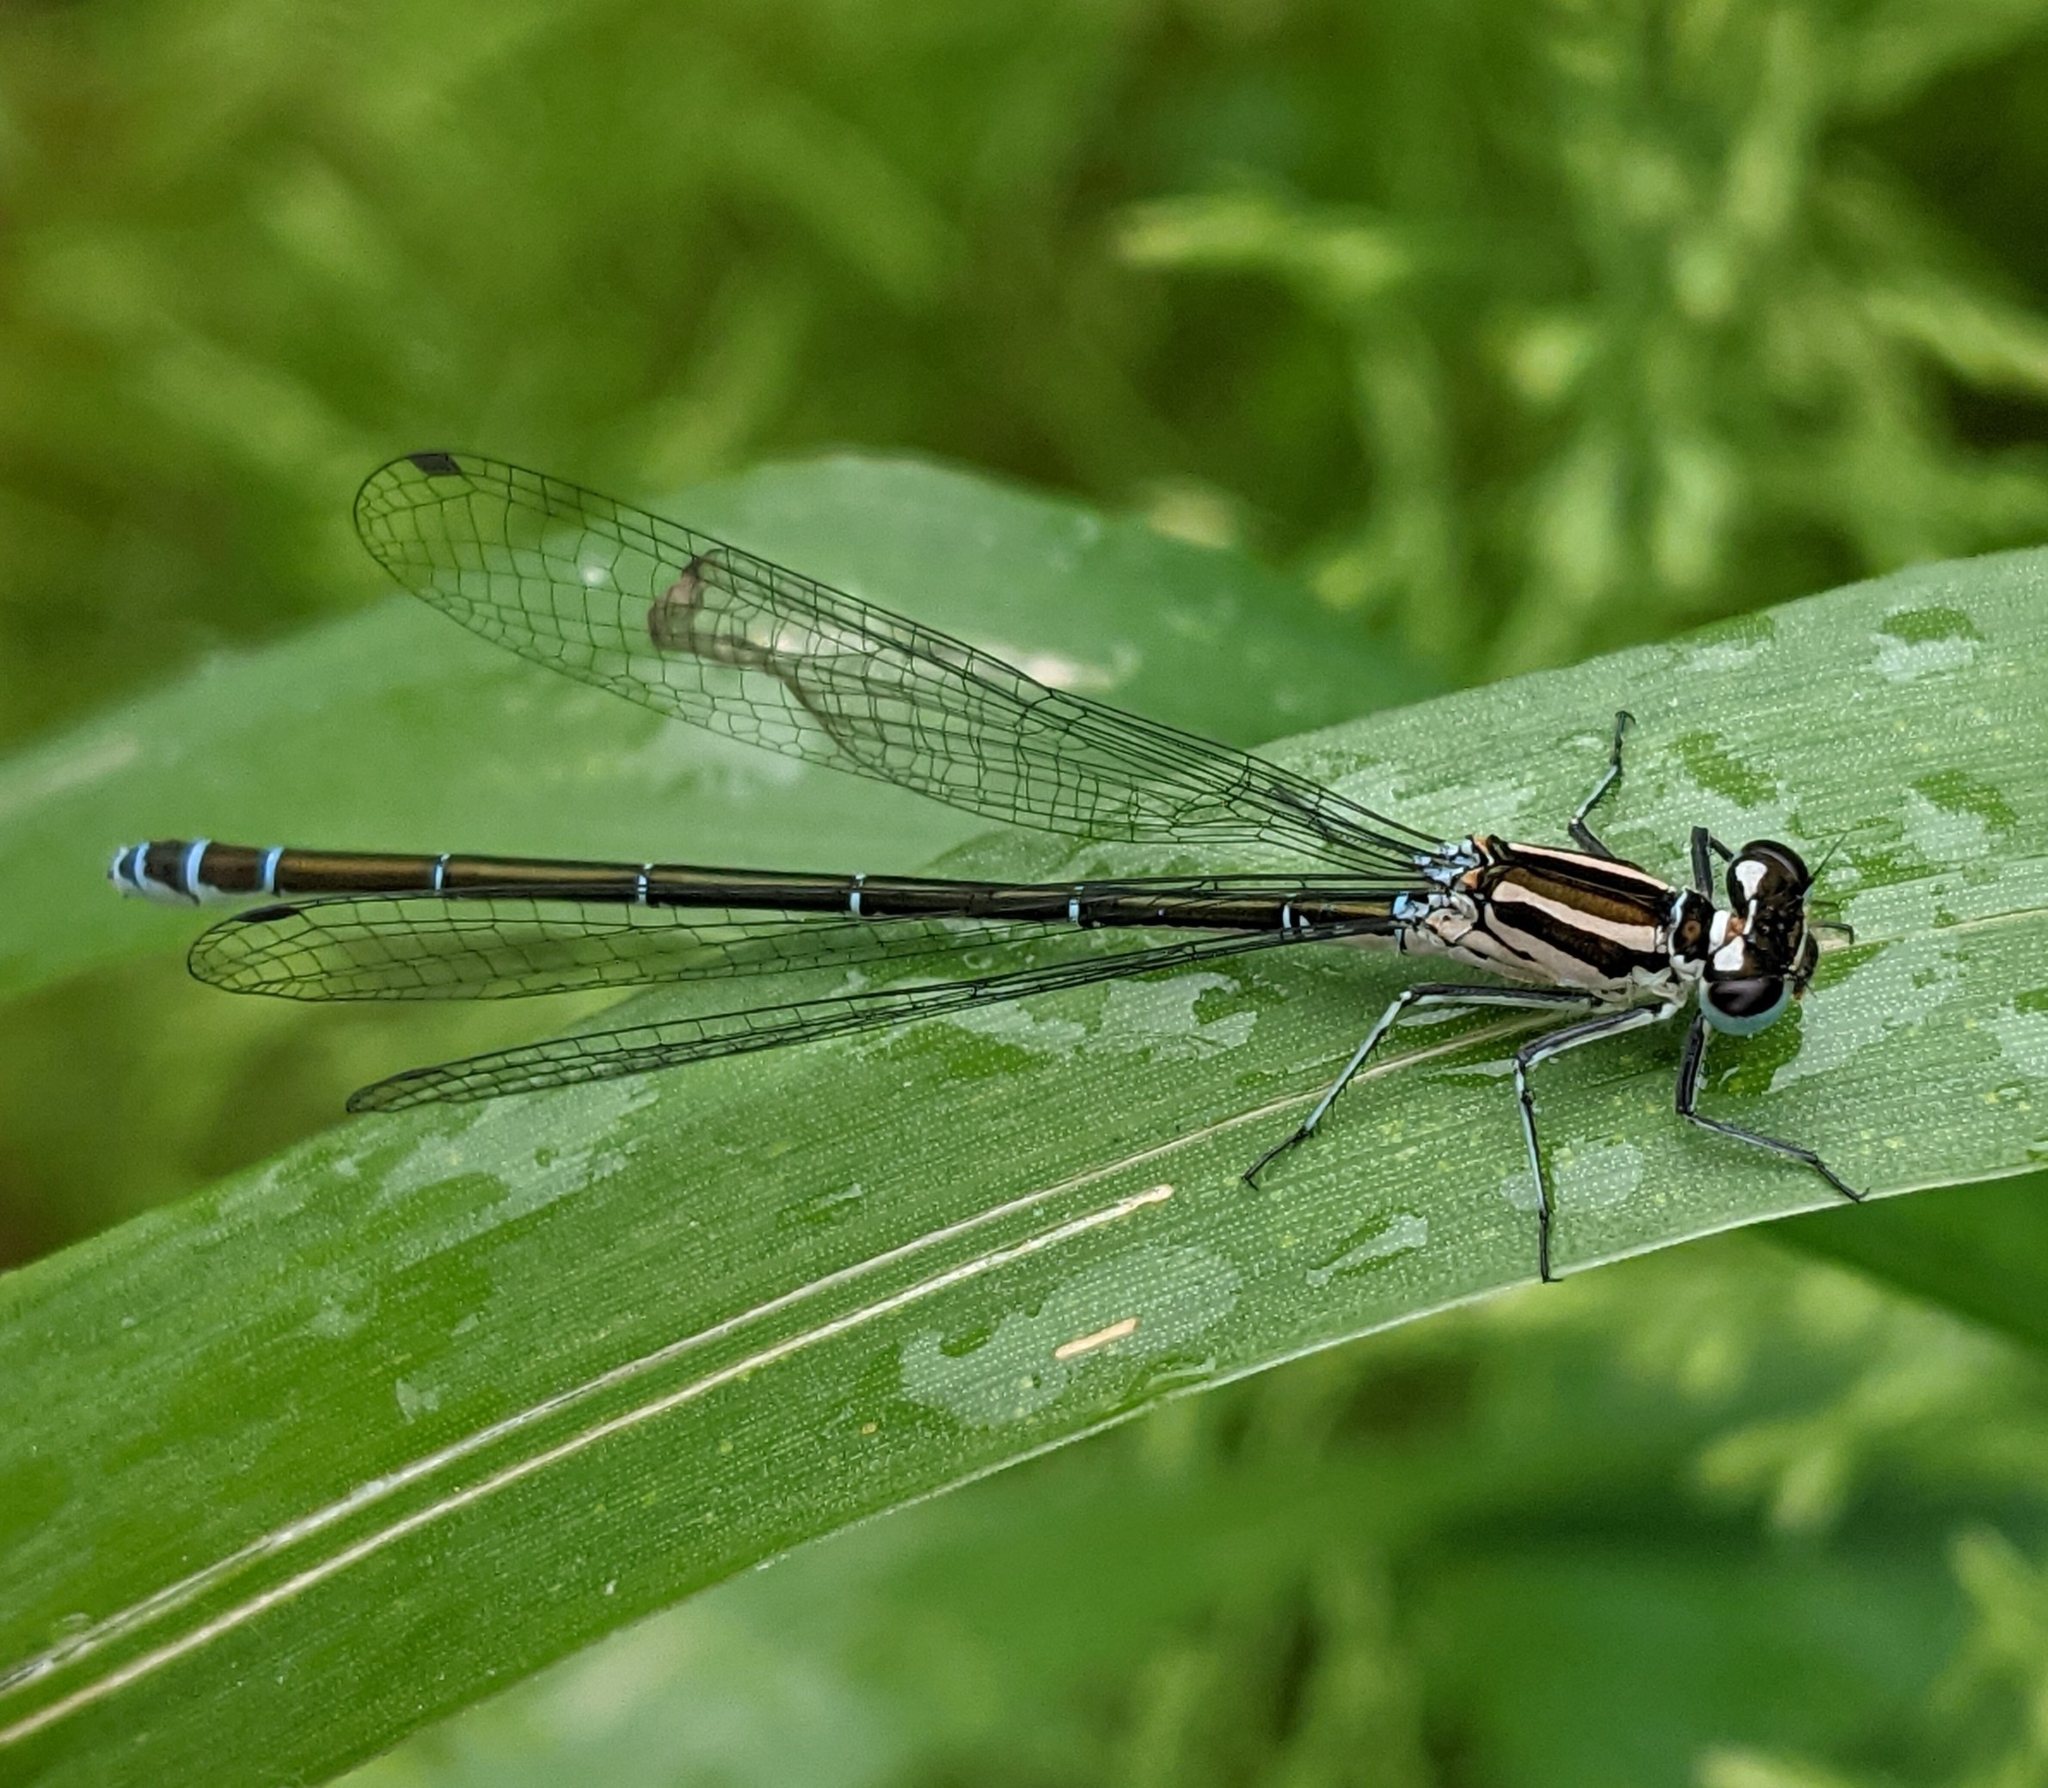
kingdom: Animalia
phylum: Arthropoda
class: Insecta
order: Odonata
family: Coenagrionidae
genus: Coenagrion
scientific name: Coenagrion puella
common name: Azure damselfly
